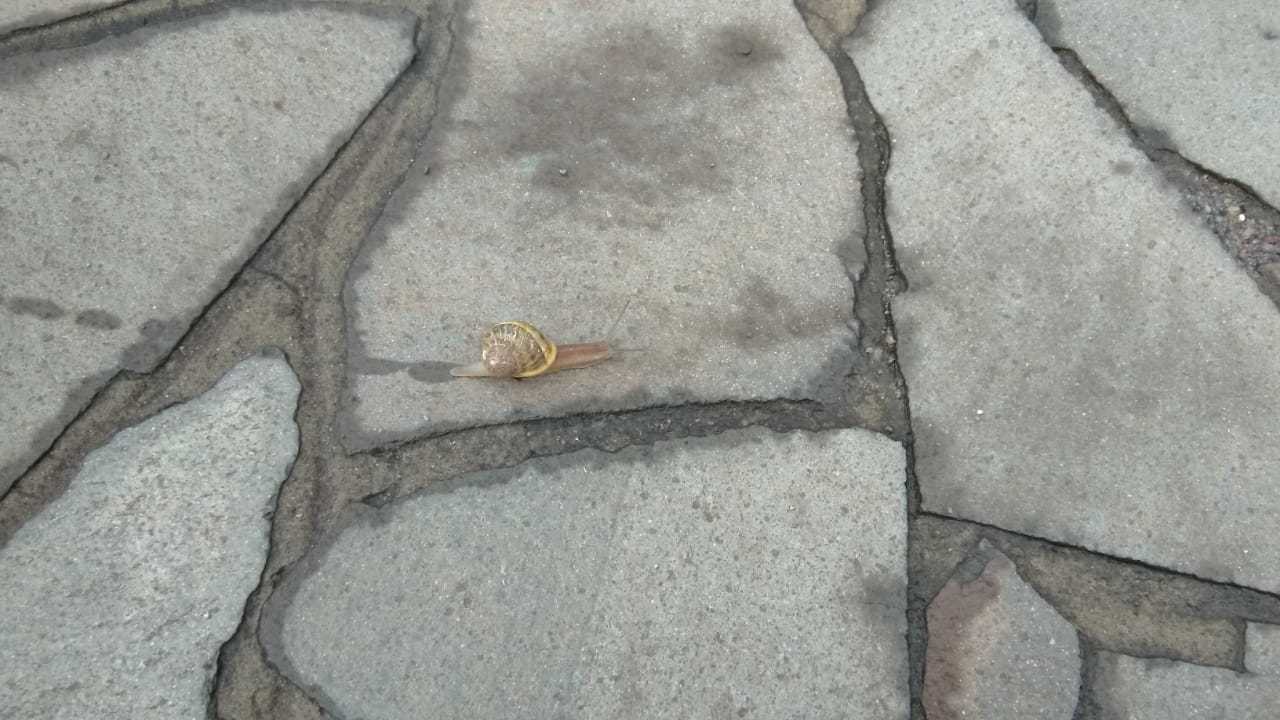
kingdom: Animalia
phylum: Mollusca
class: Gastropoda
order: Stylommatophora
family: Helicidae
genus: Cornu
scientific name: Cornu aspersum
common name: Brown garden snail
